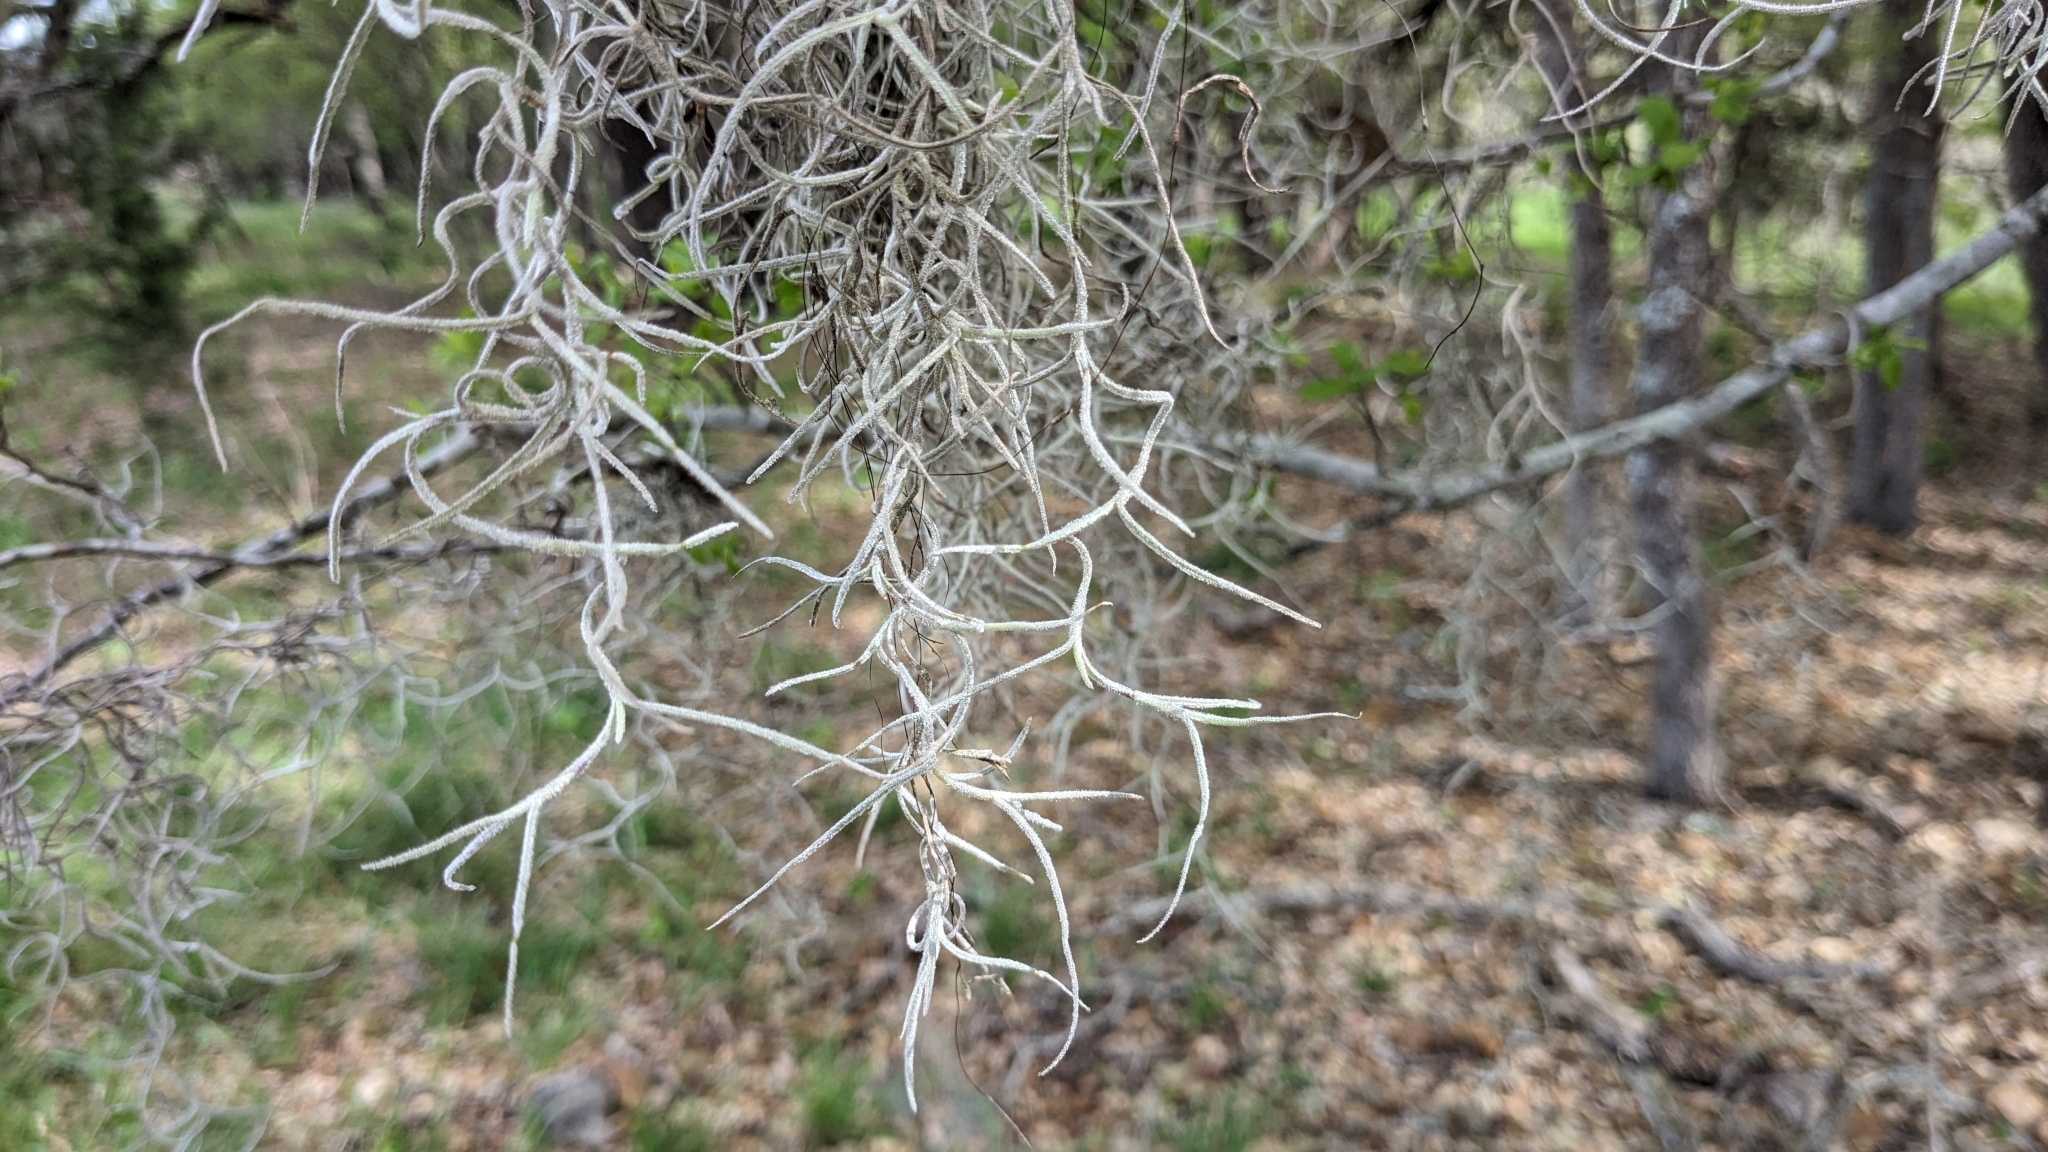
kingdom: Plantae
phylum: Tracheophyta
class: Liliopsida
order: Poales
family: Bromeliaceae
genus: Tillandsia
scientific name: Tillandsia usneoides
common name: Spanish moss
